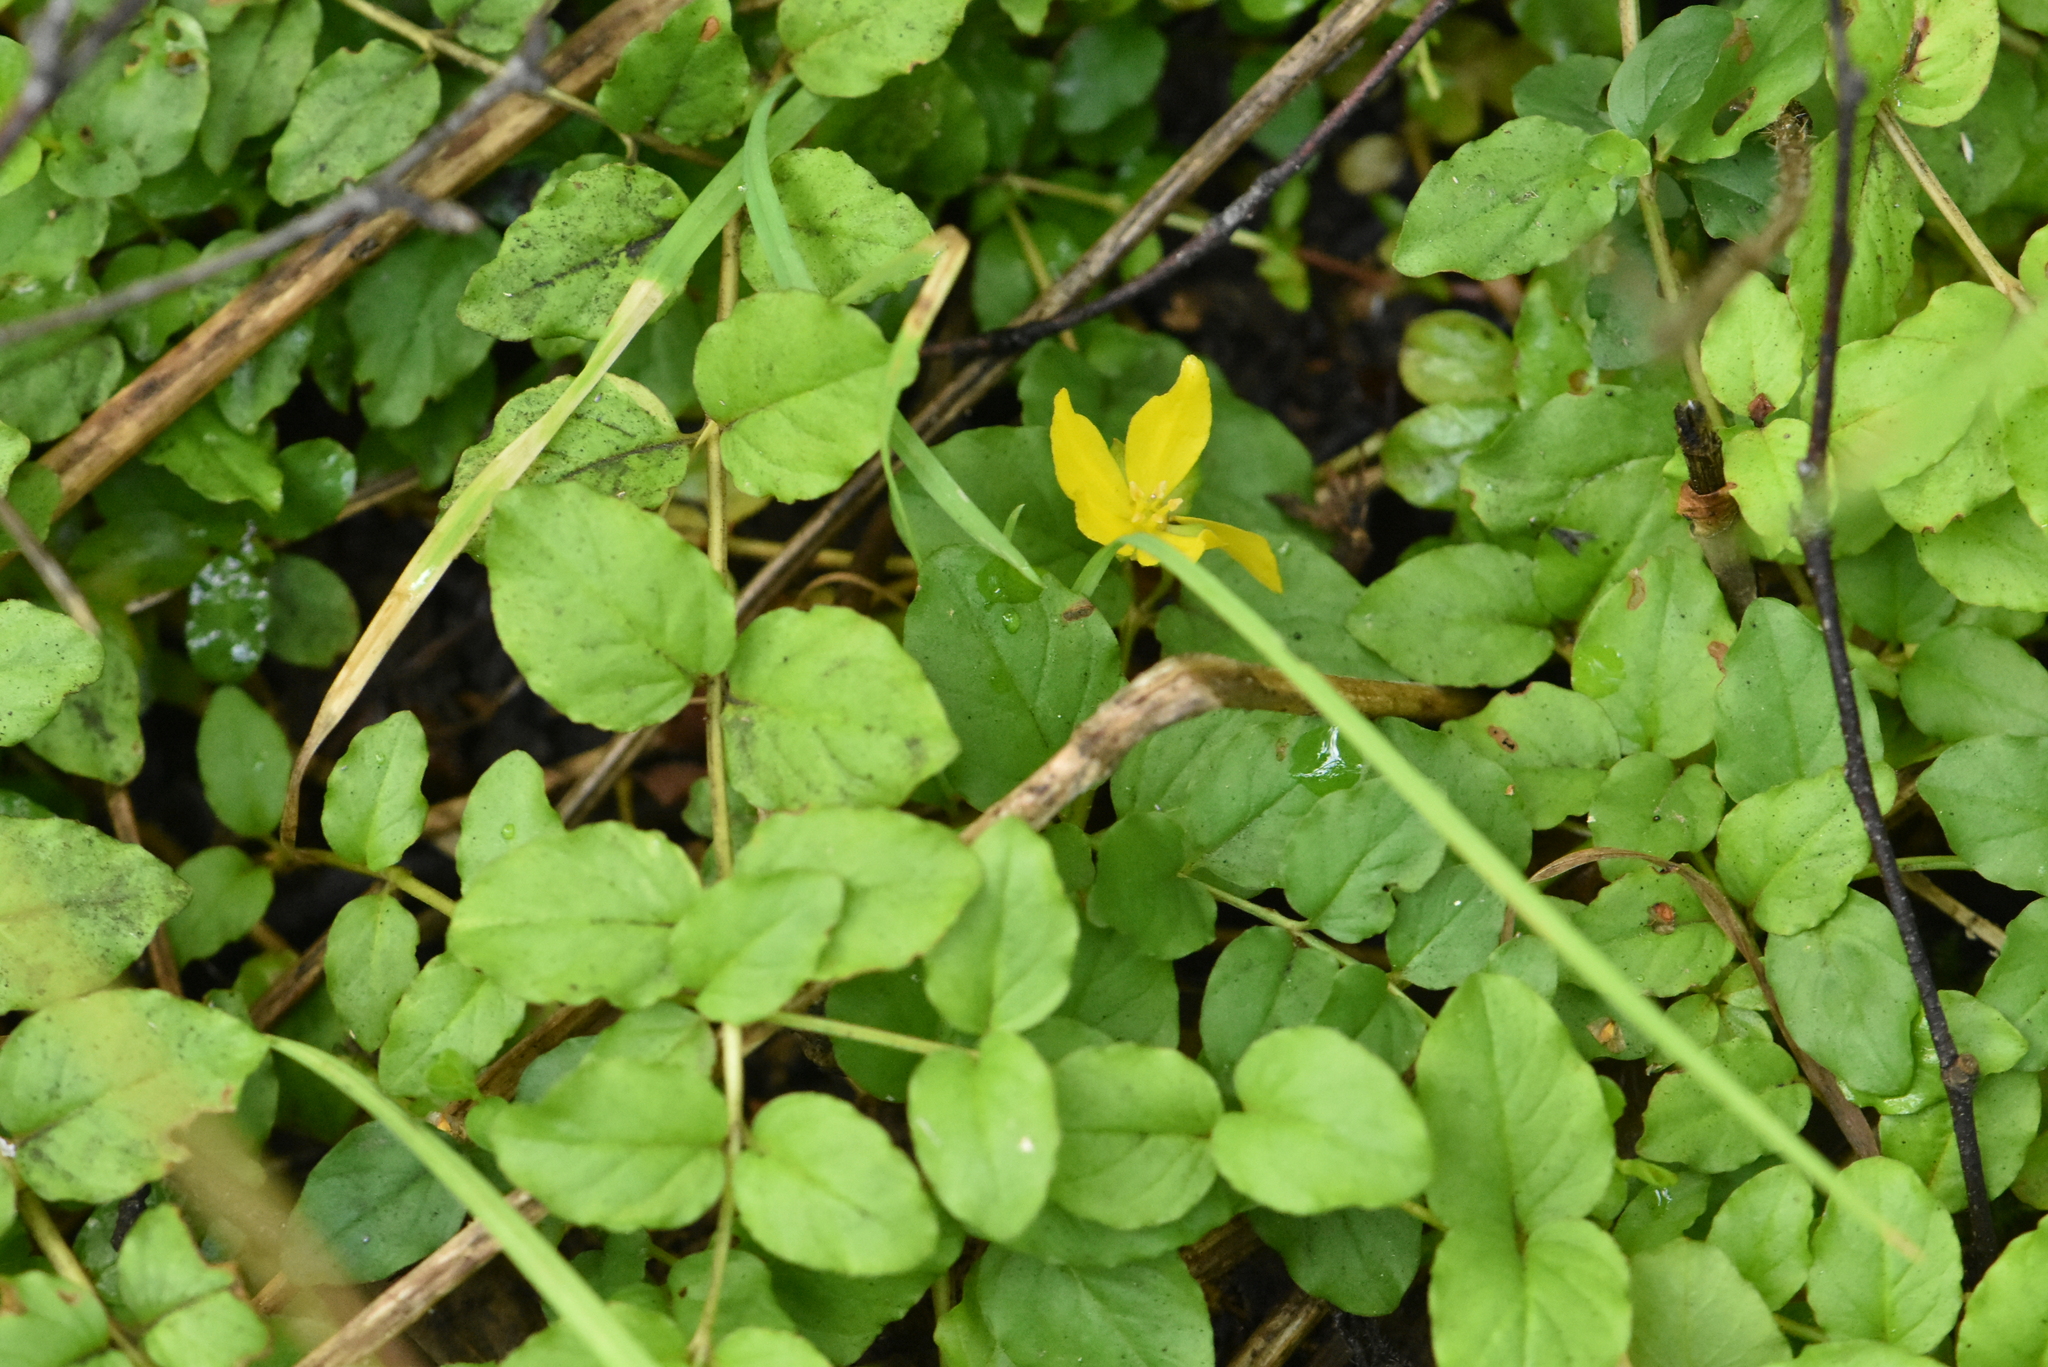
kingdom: Plantae
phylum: Tracheophyta
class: Magnoliopsida
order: Ericales
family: Primulaceae
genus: Lysimachia
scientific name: Lysimachia nummularia
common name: Moneywort
